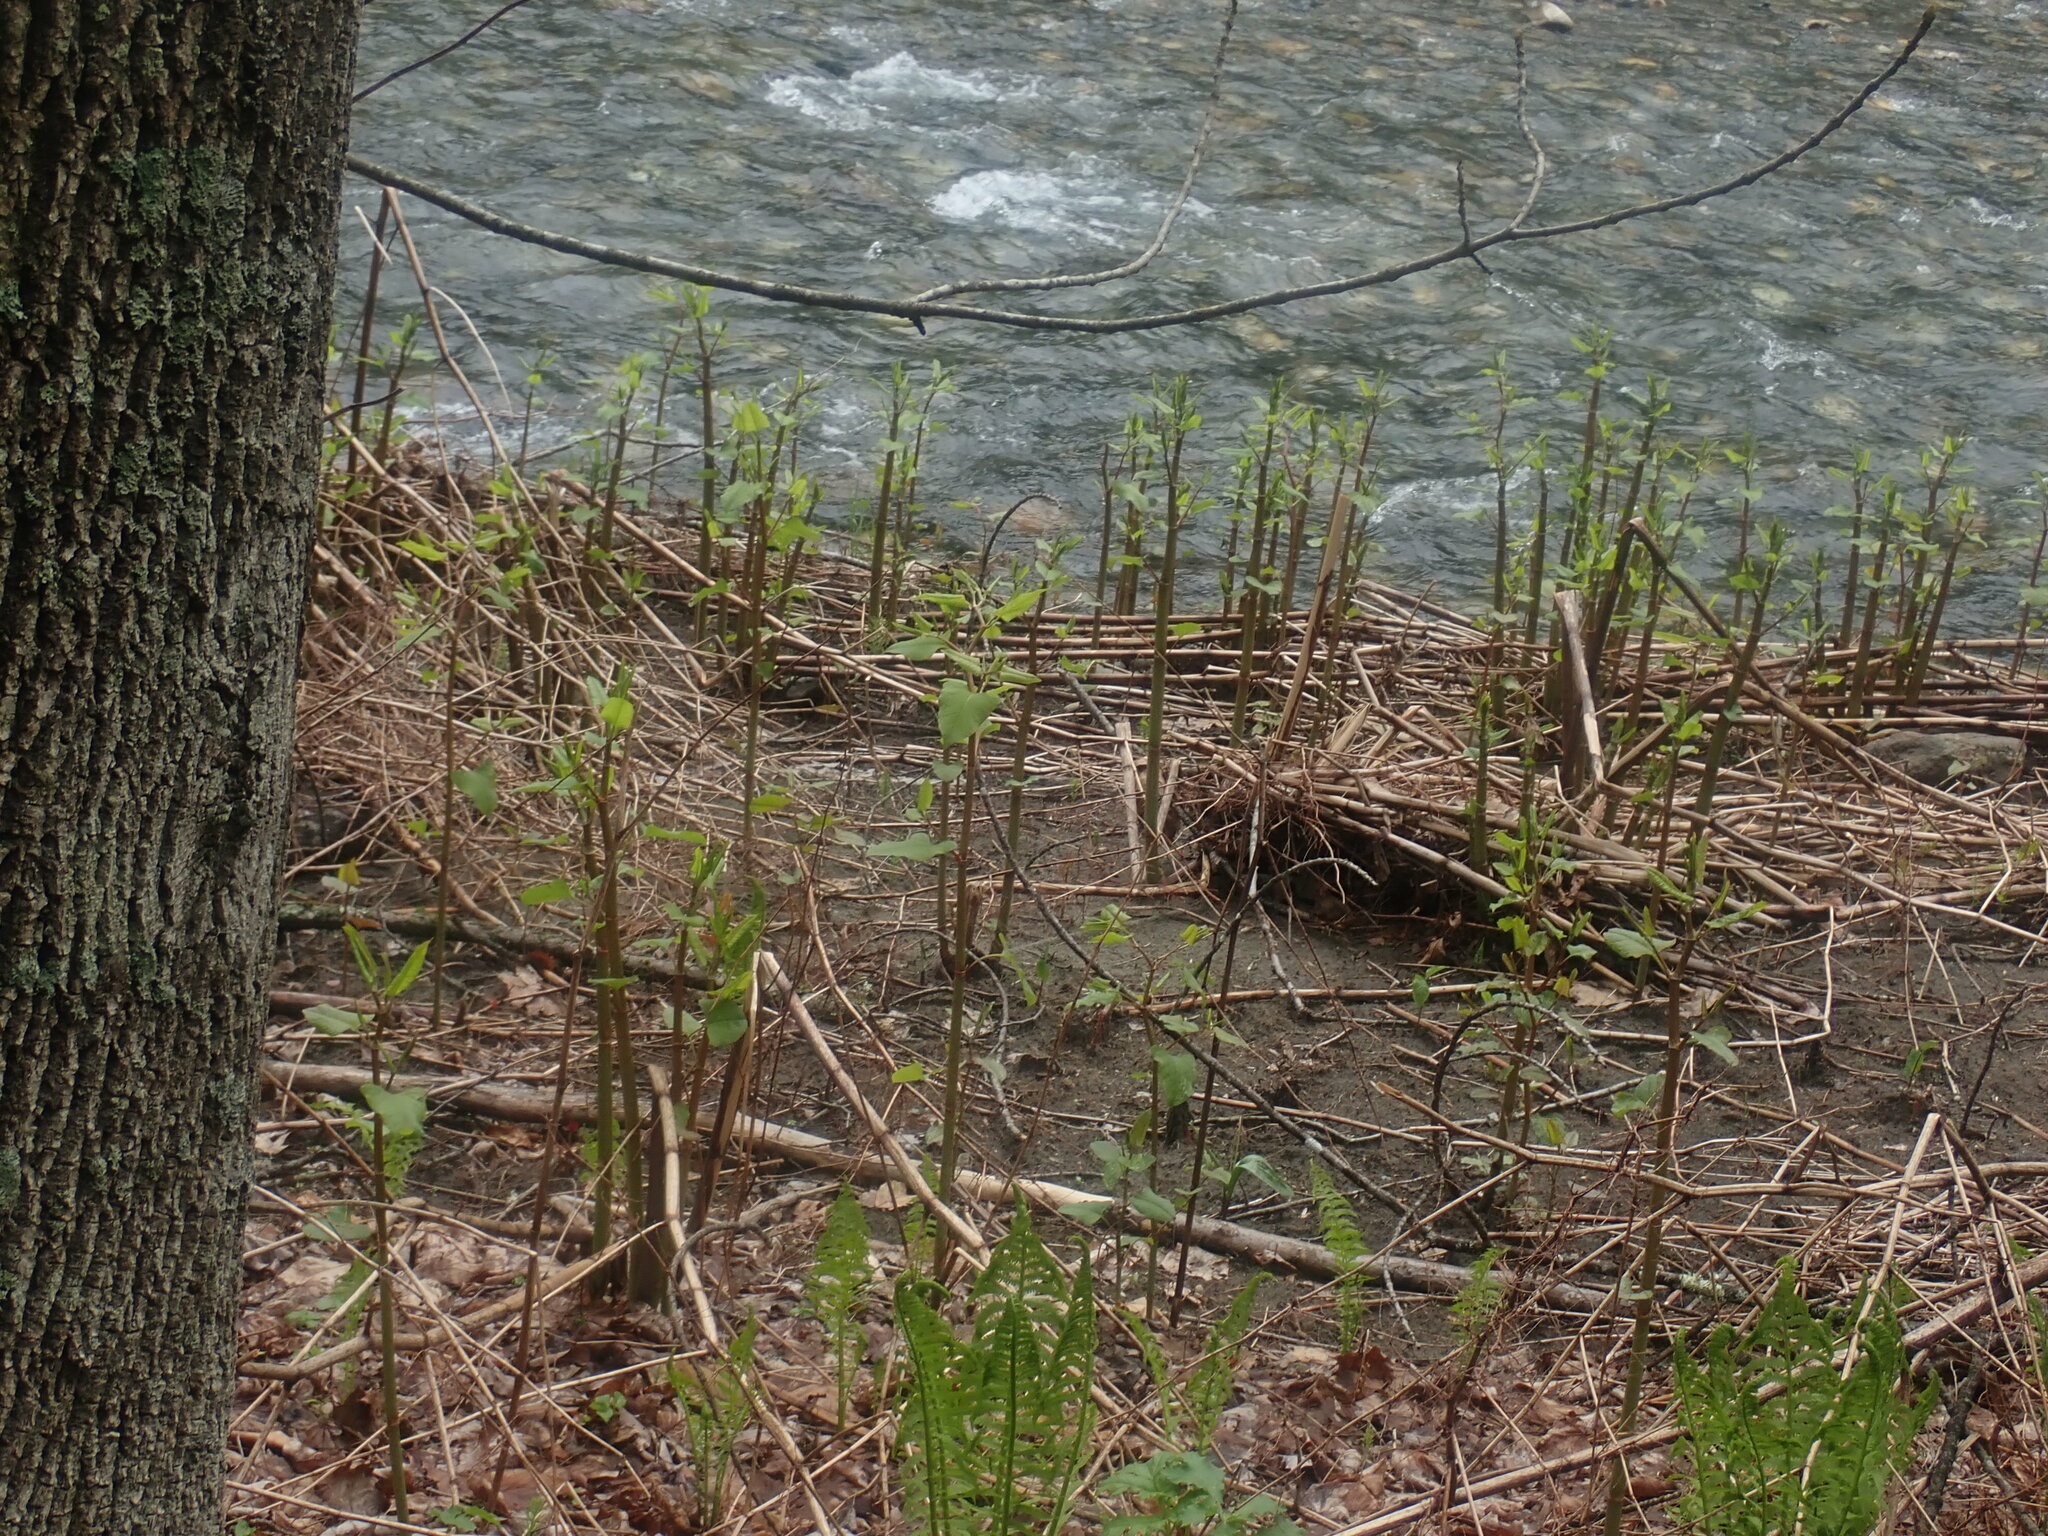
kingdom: Plantae
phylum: Tracheophyta
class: Magnoliopsida
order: Caryophyllales
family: Polygonaceae
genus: Reynoutria
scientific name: Reynoutria
